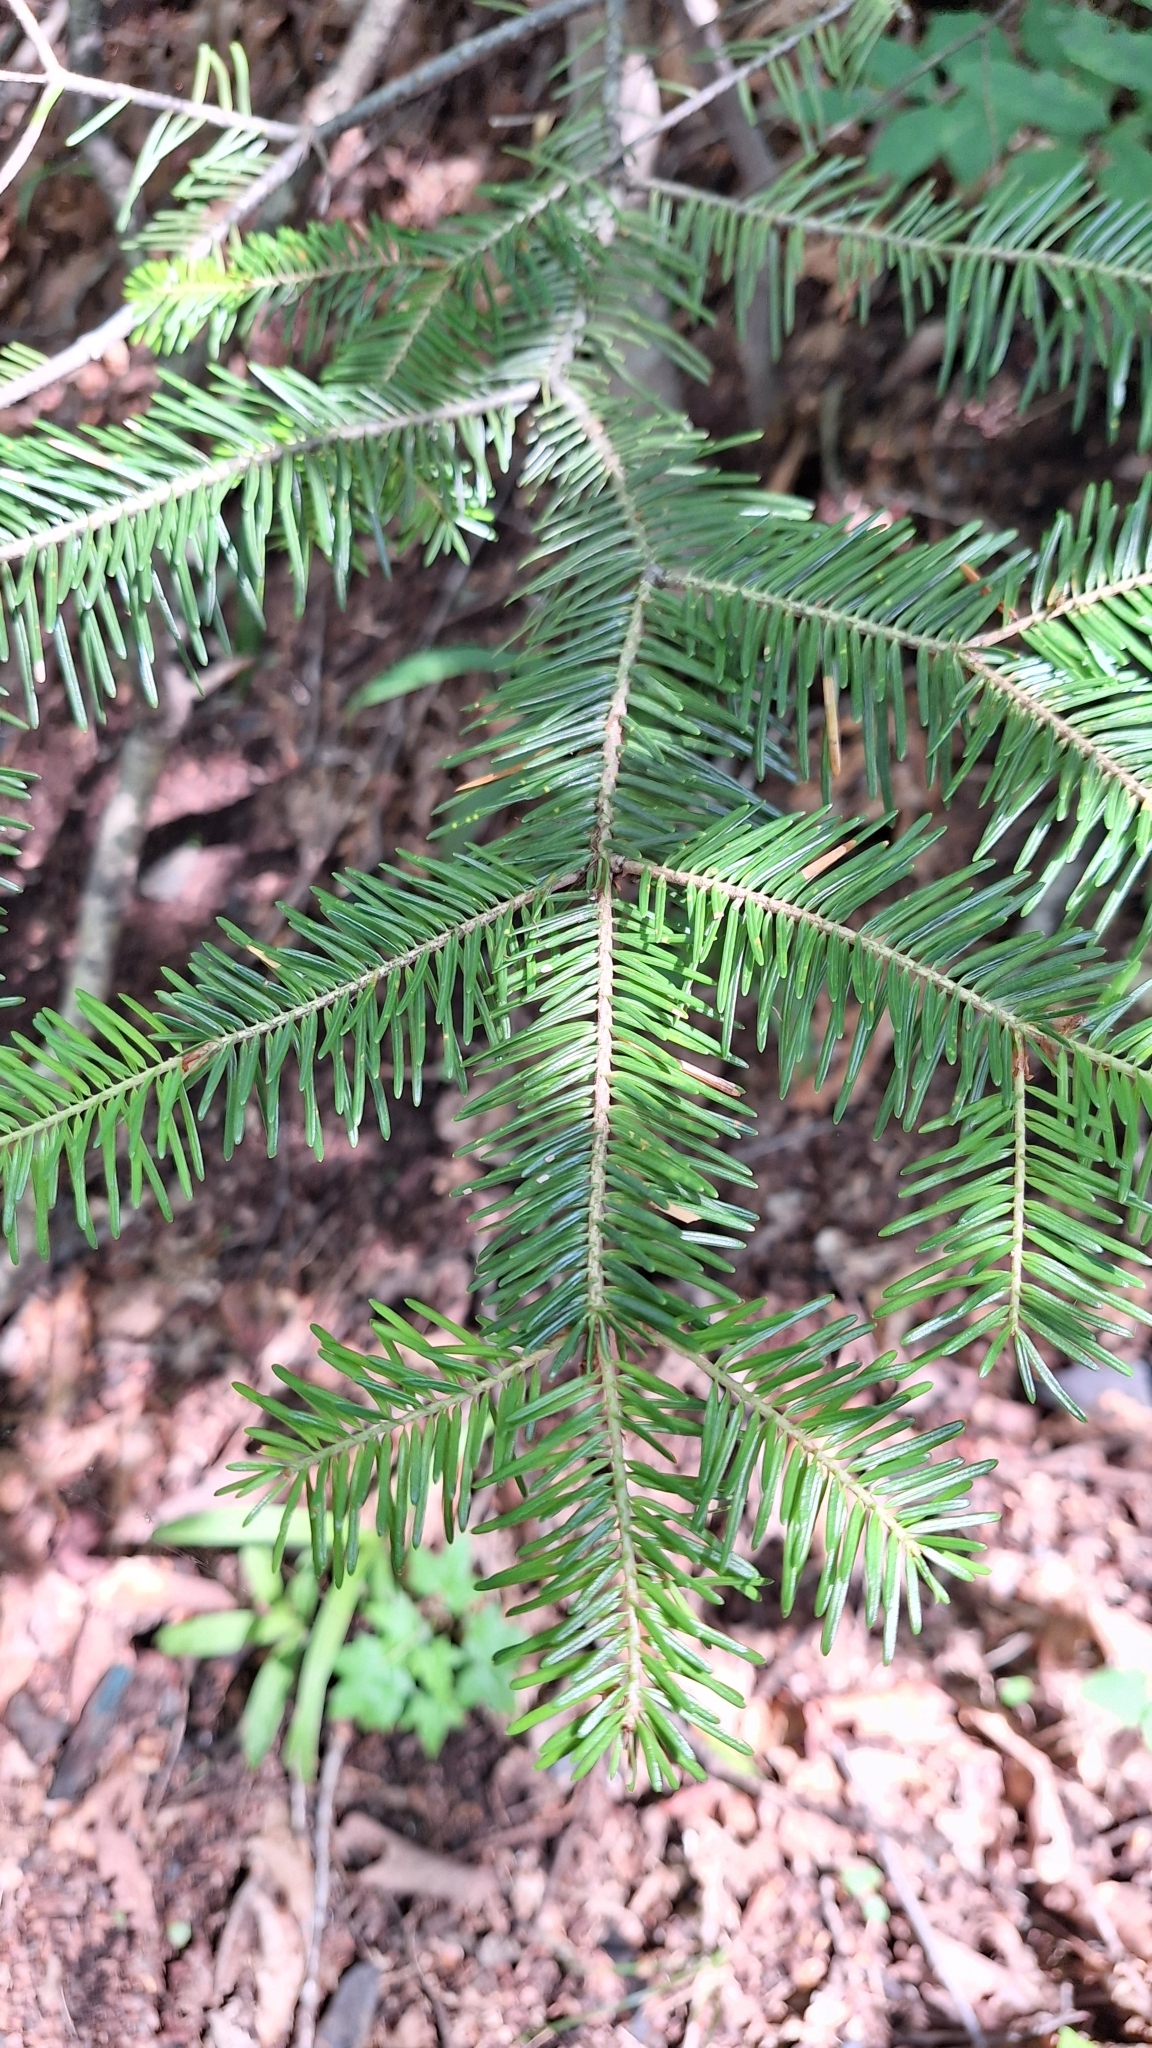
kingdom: Plantae
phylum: Tracheophyta
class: Pinopsida
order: Pinales
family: Pinaceae
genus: Abies
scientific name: Abies holophylla
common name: Manchurian fir
